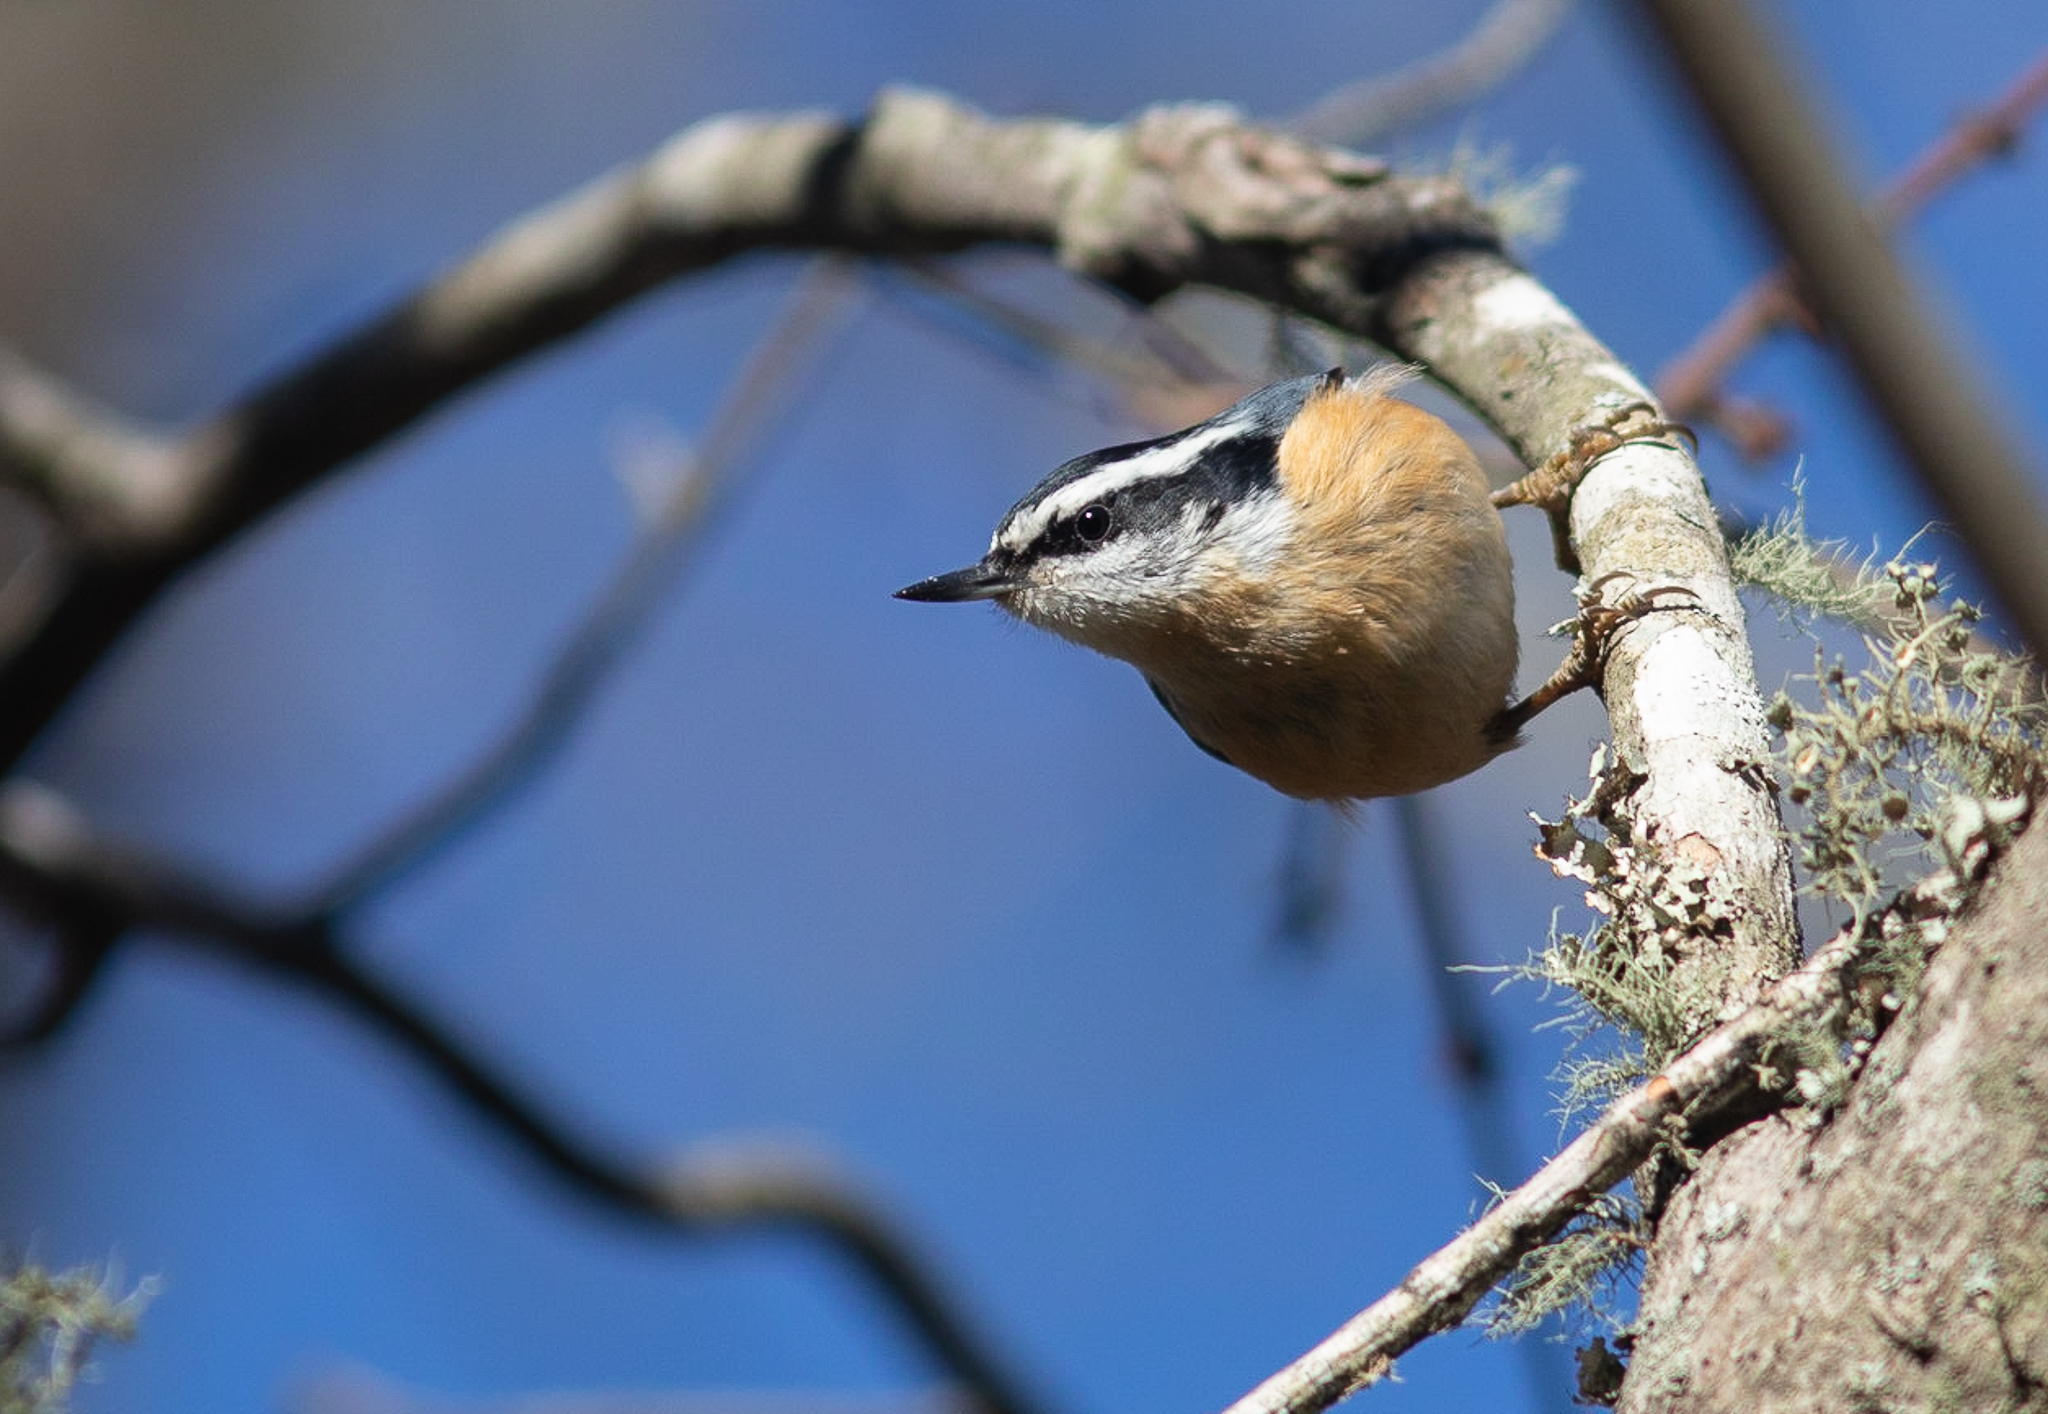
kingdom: Animalia
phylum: Chordata
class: Aves
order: Passeriformes
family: Sittidae
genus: Sitta
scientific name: Sitta canadensis
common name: Red-breasted nuthatch
